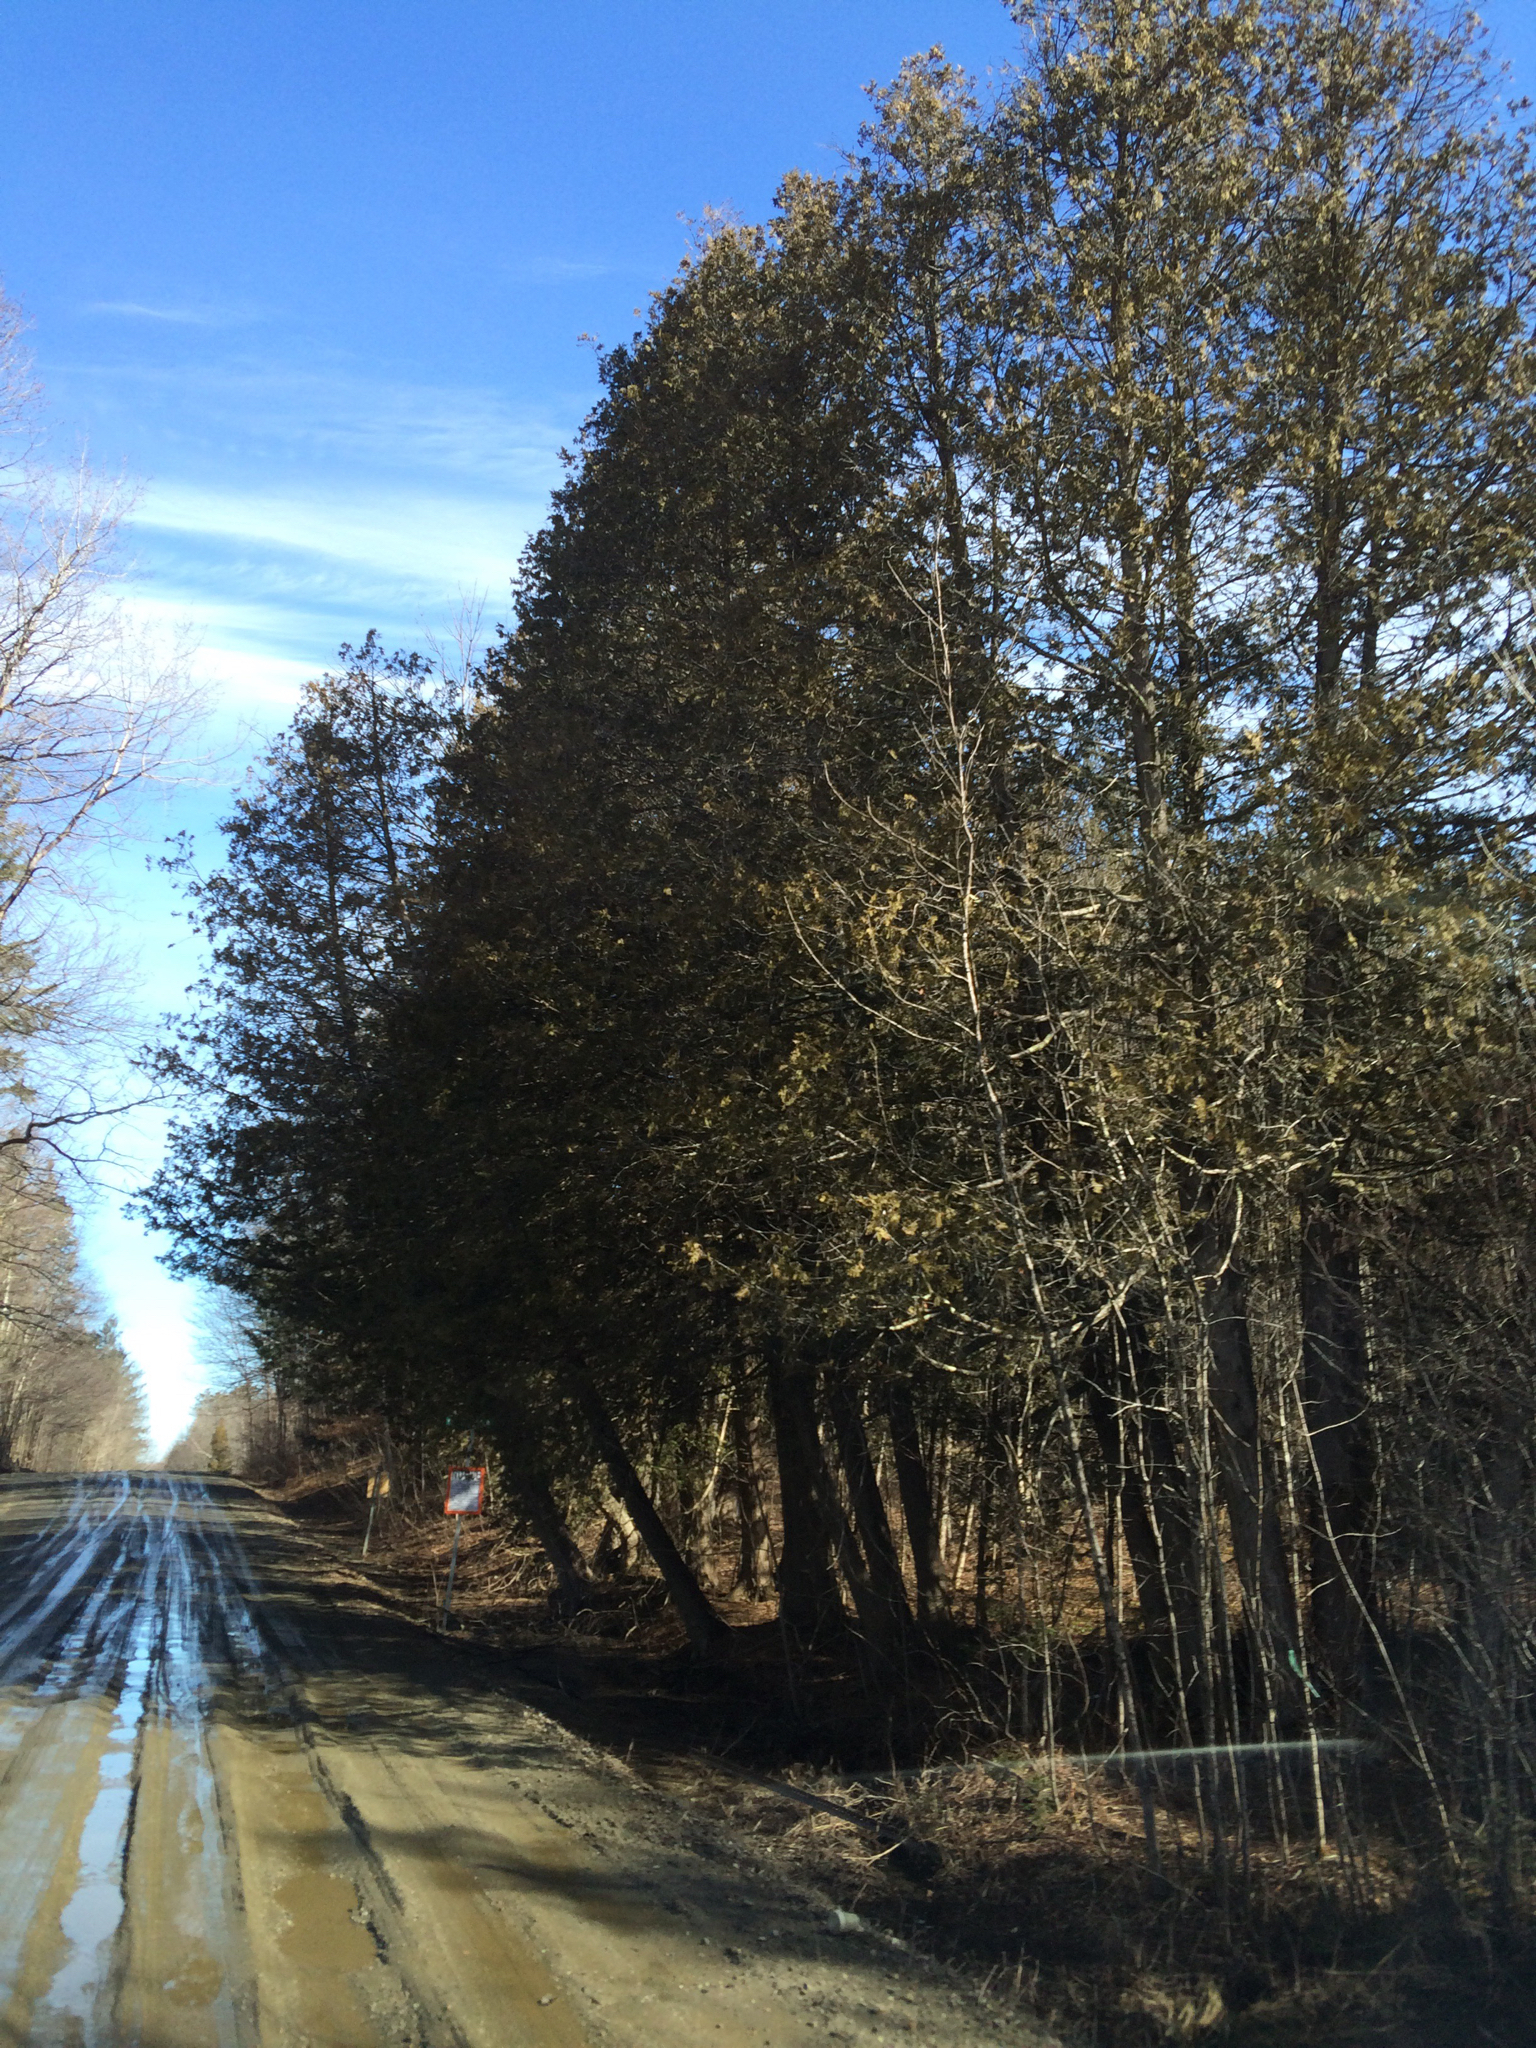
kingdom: Plantae
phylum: Tracheophyta
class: Pinopsida
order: Pinales
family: Cupressaceae
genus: Thuja
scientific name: Thuja occidentalis
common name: Northern white-cedar
